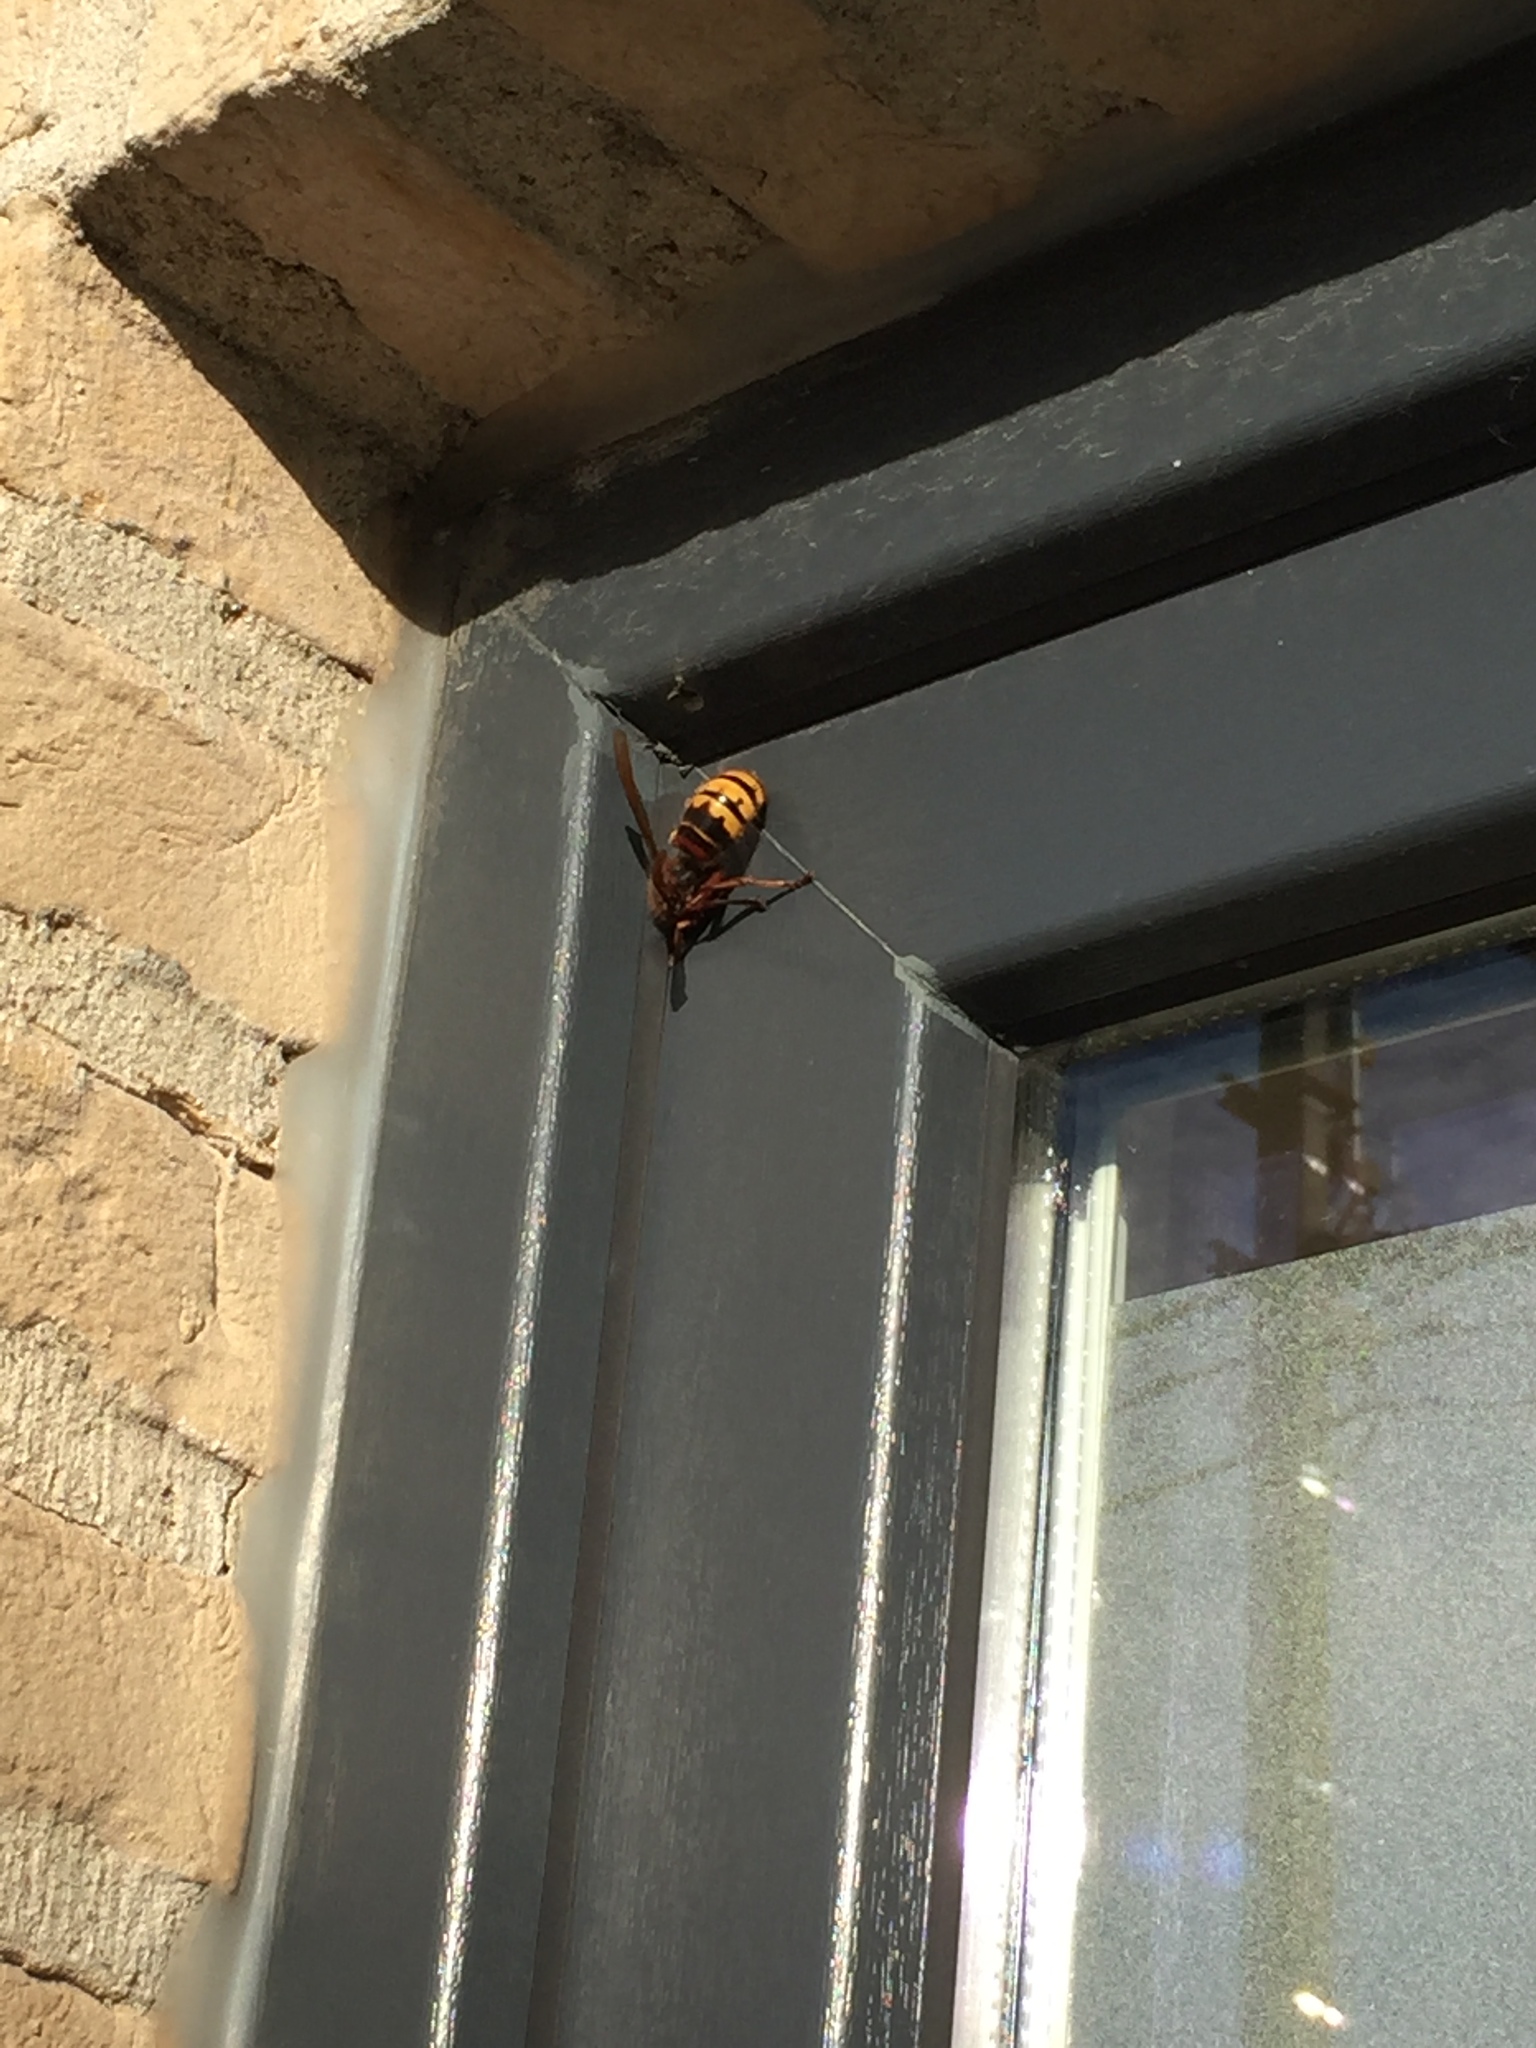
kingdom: Animalia
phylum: Arthropoda
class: Insecta
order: Hymenoptera
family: Vespidae
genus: Vespa
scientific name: Vespa crabro
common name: Hornet
